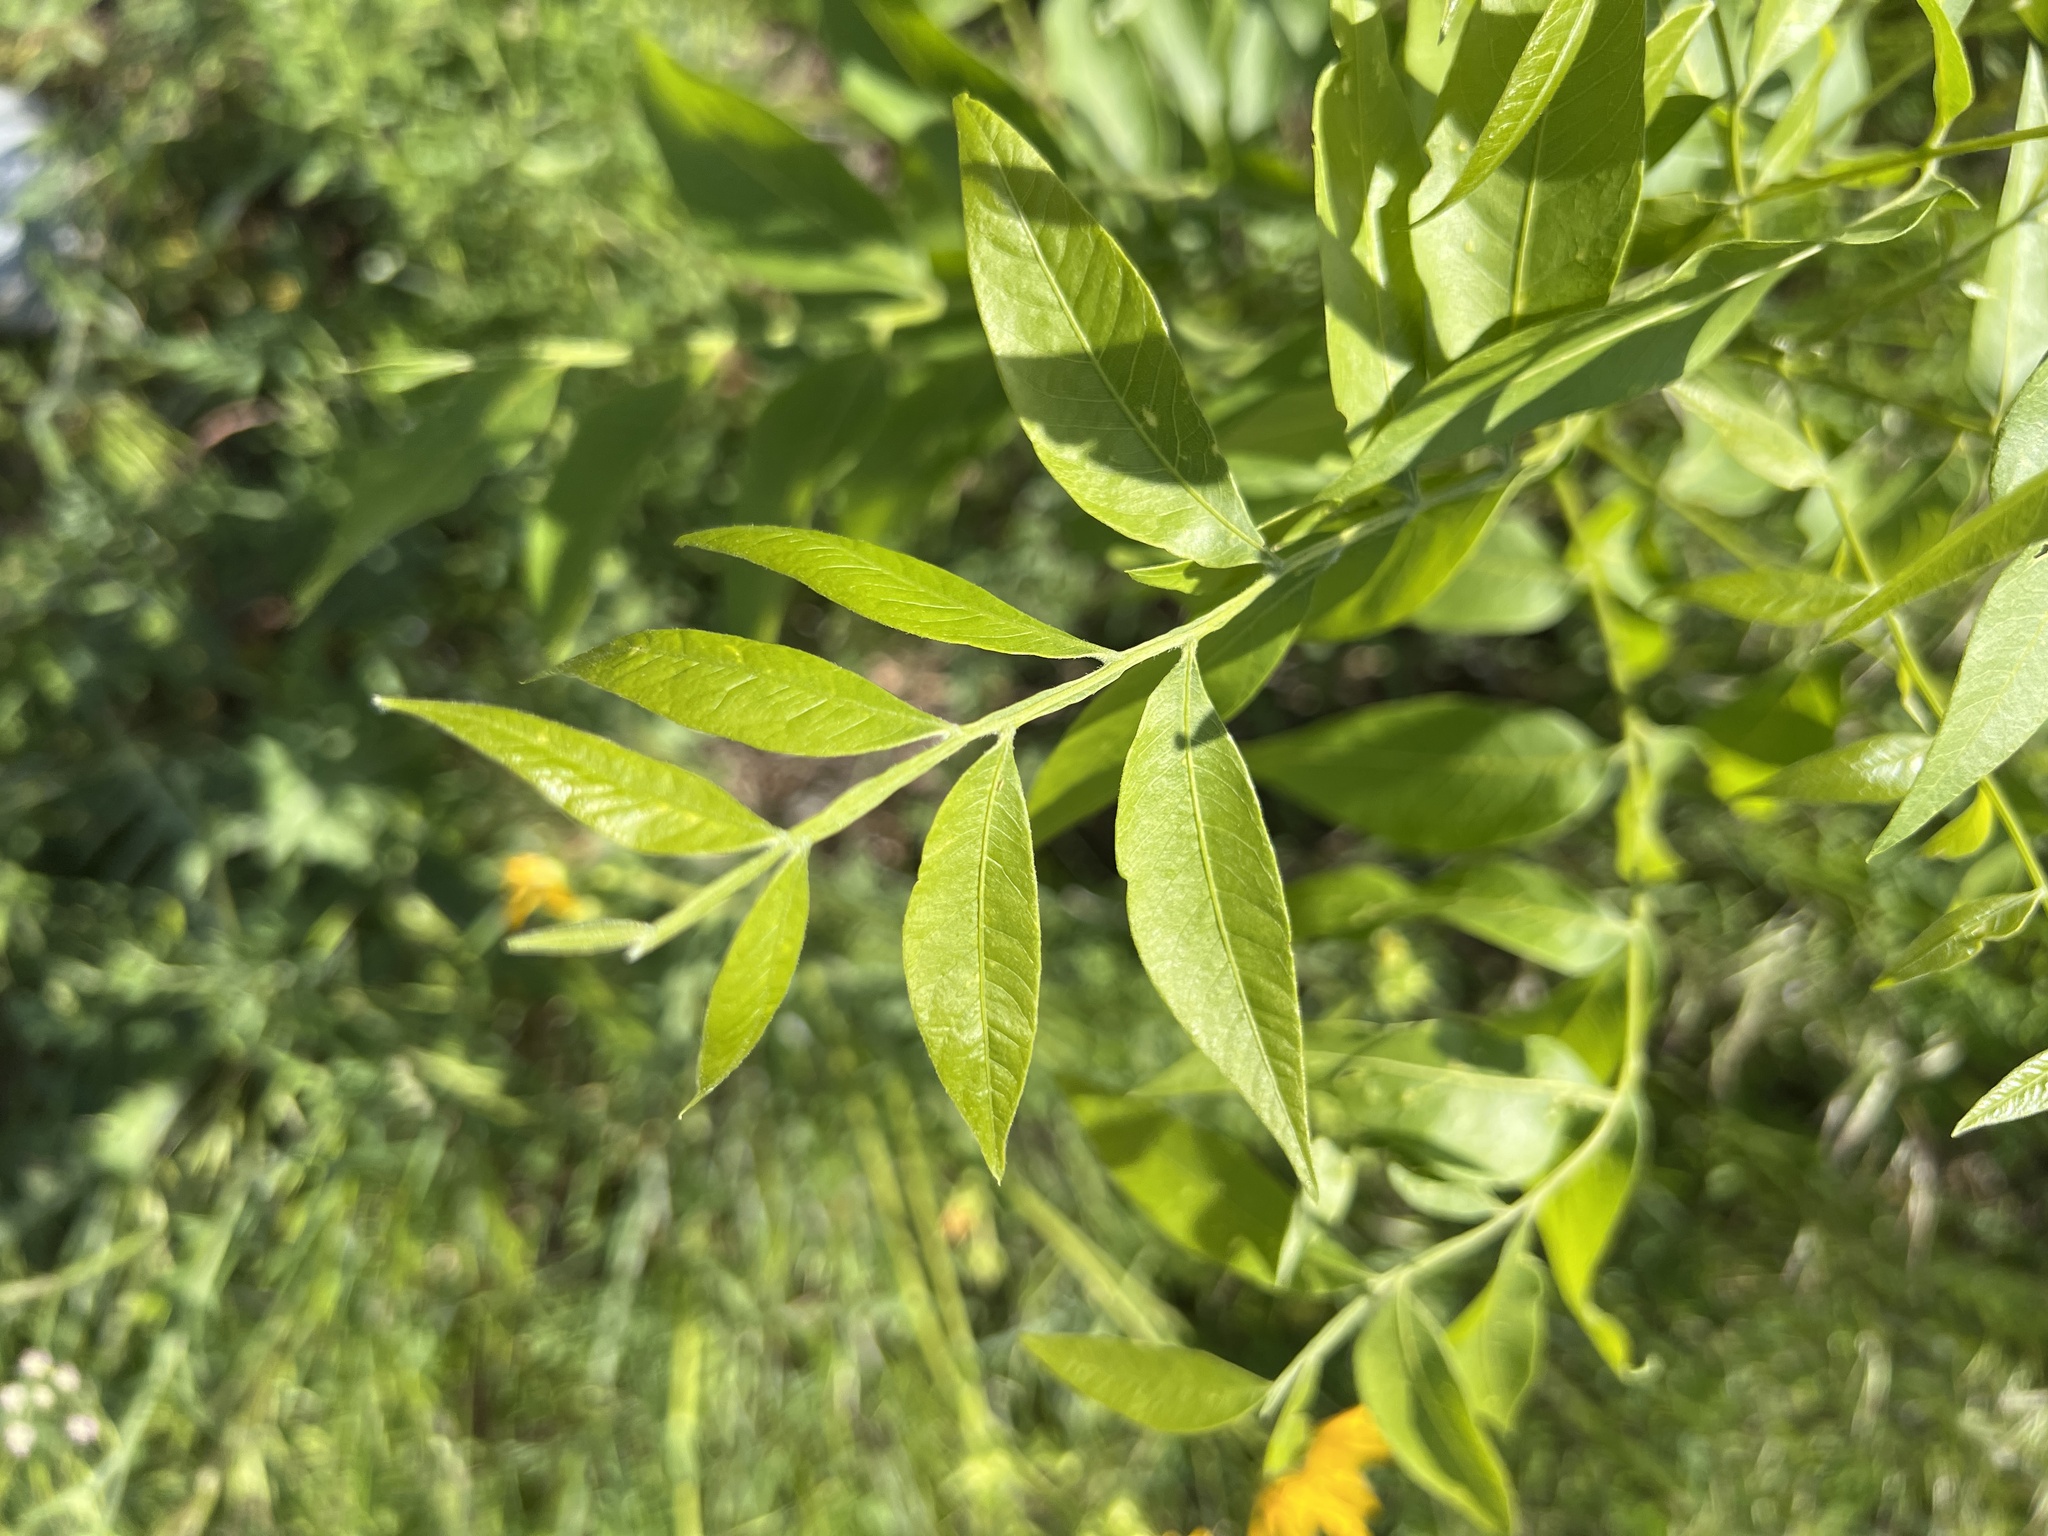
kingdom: Plantae
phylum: Tracheophyta
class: Magnoliopsida
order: Sapindales
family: Sapindaceae
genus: Sapindus
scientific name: Sapindus drummondii
